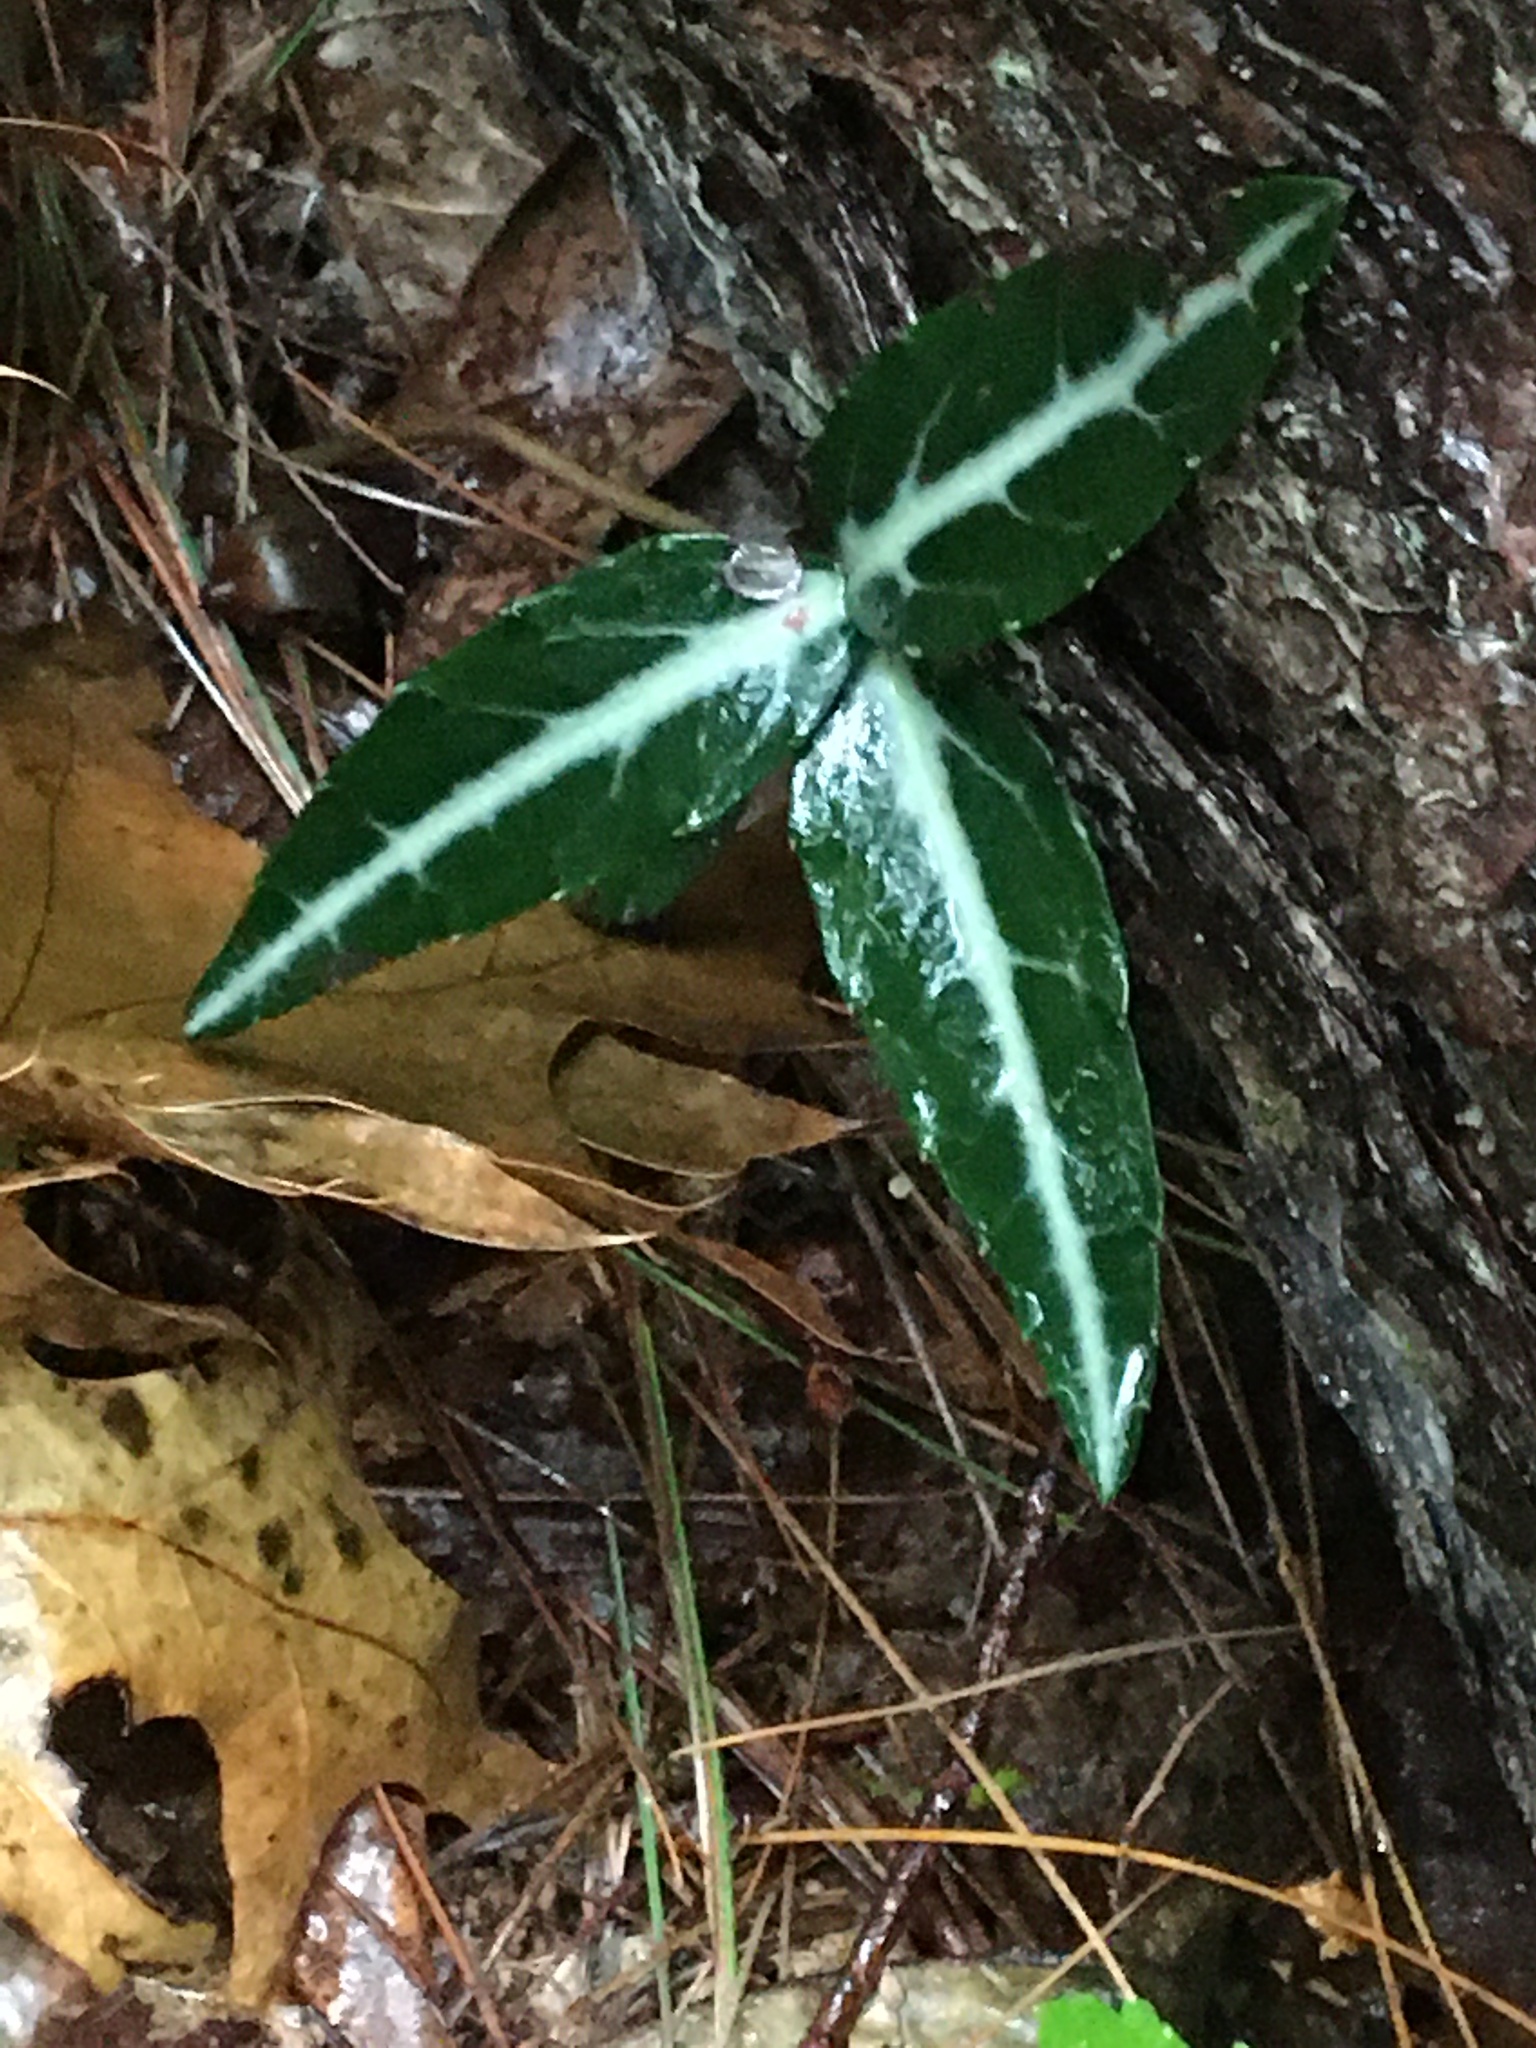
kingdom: Plantae
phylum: Tracheophyta
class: Magnoliopsida
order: Ericales
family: Ericaceae
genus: Chimaphila
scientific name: Chimaphila maculata
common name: Spotted pipsissewa
